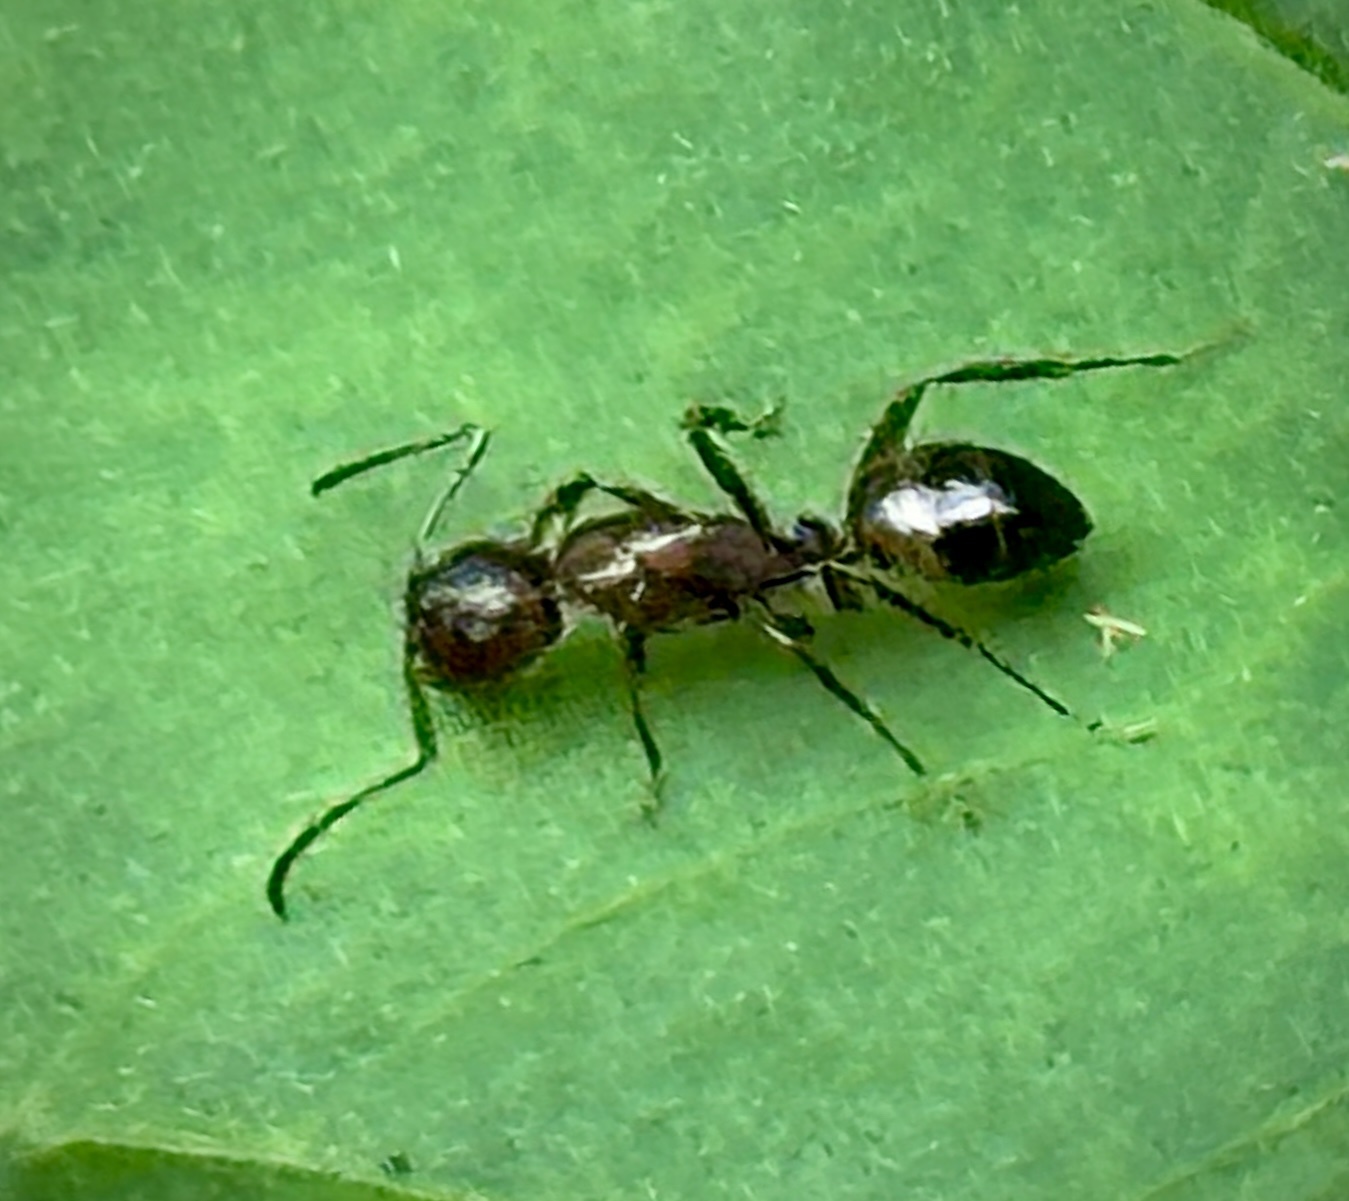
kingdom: Animalia
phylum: Arthropoda
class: Insecta
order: Hymenoptera
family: Formicidae
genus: Camponotus
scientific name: Camponotus subbarbatus
